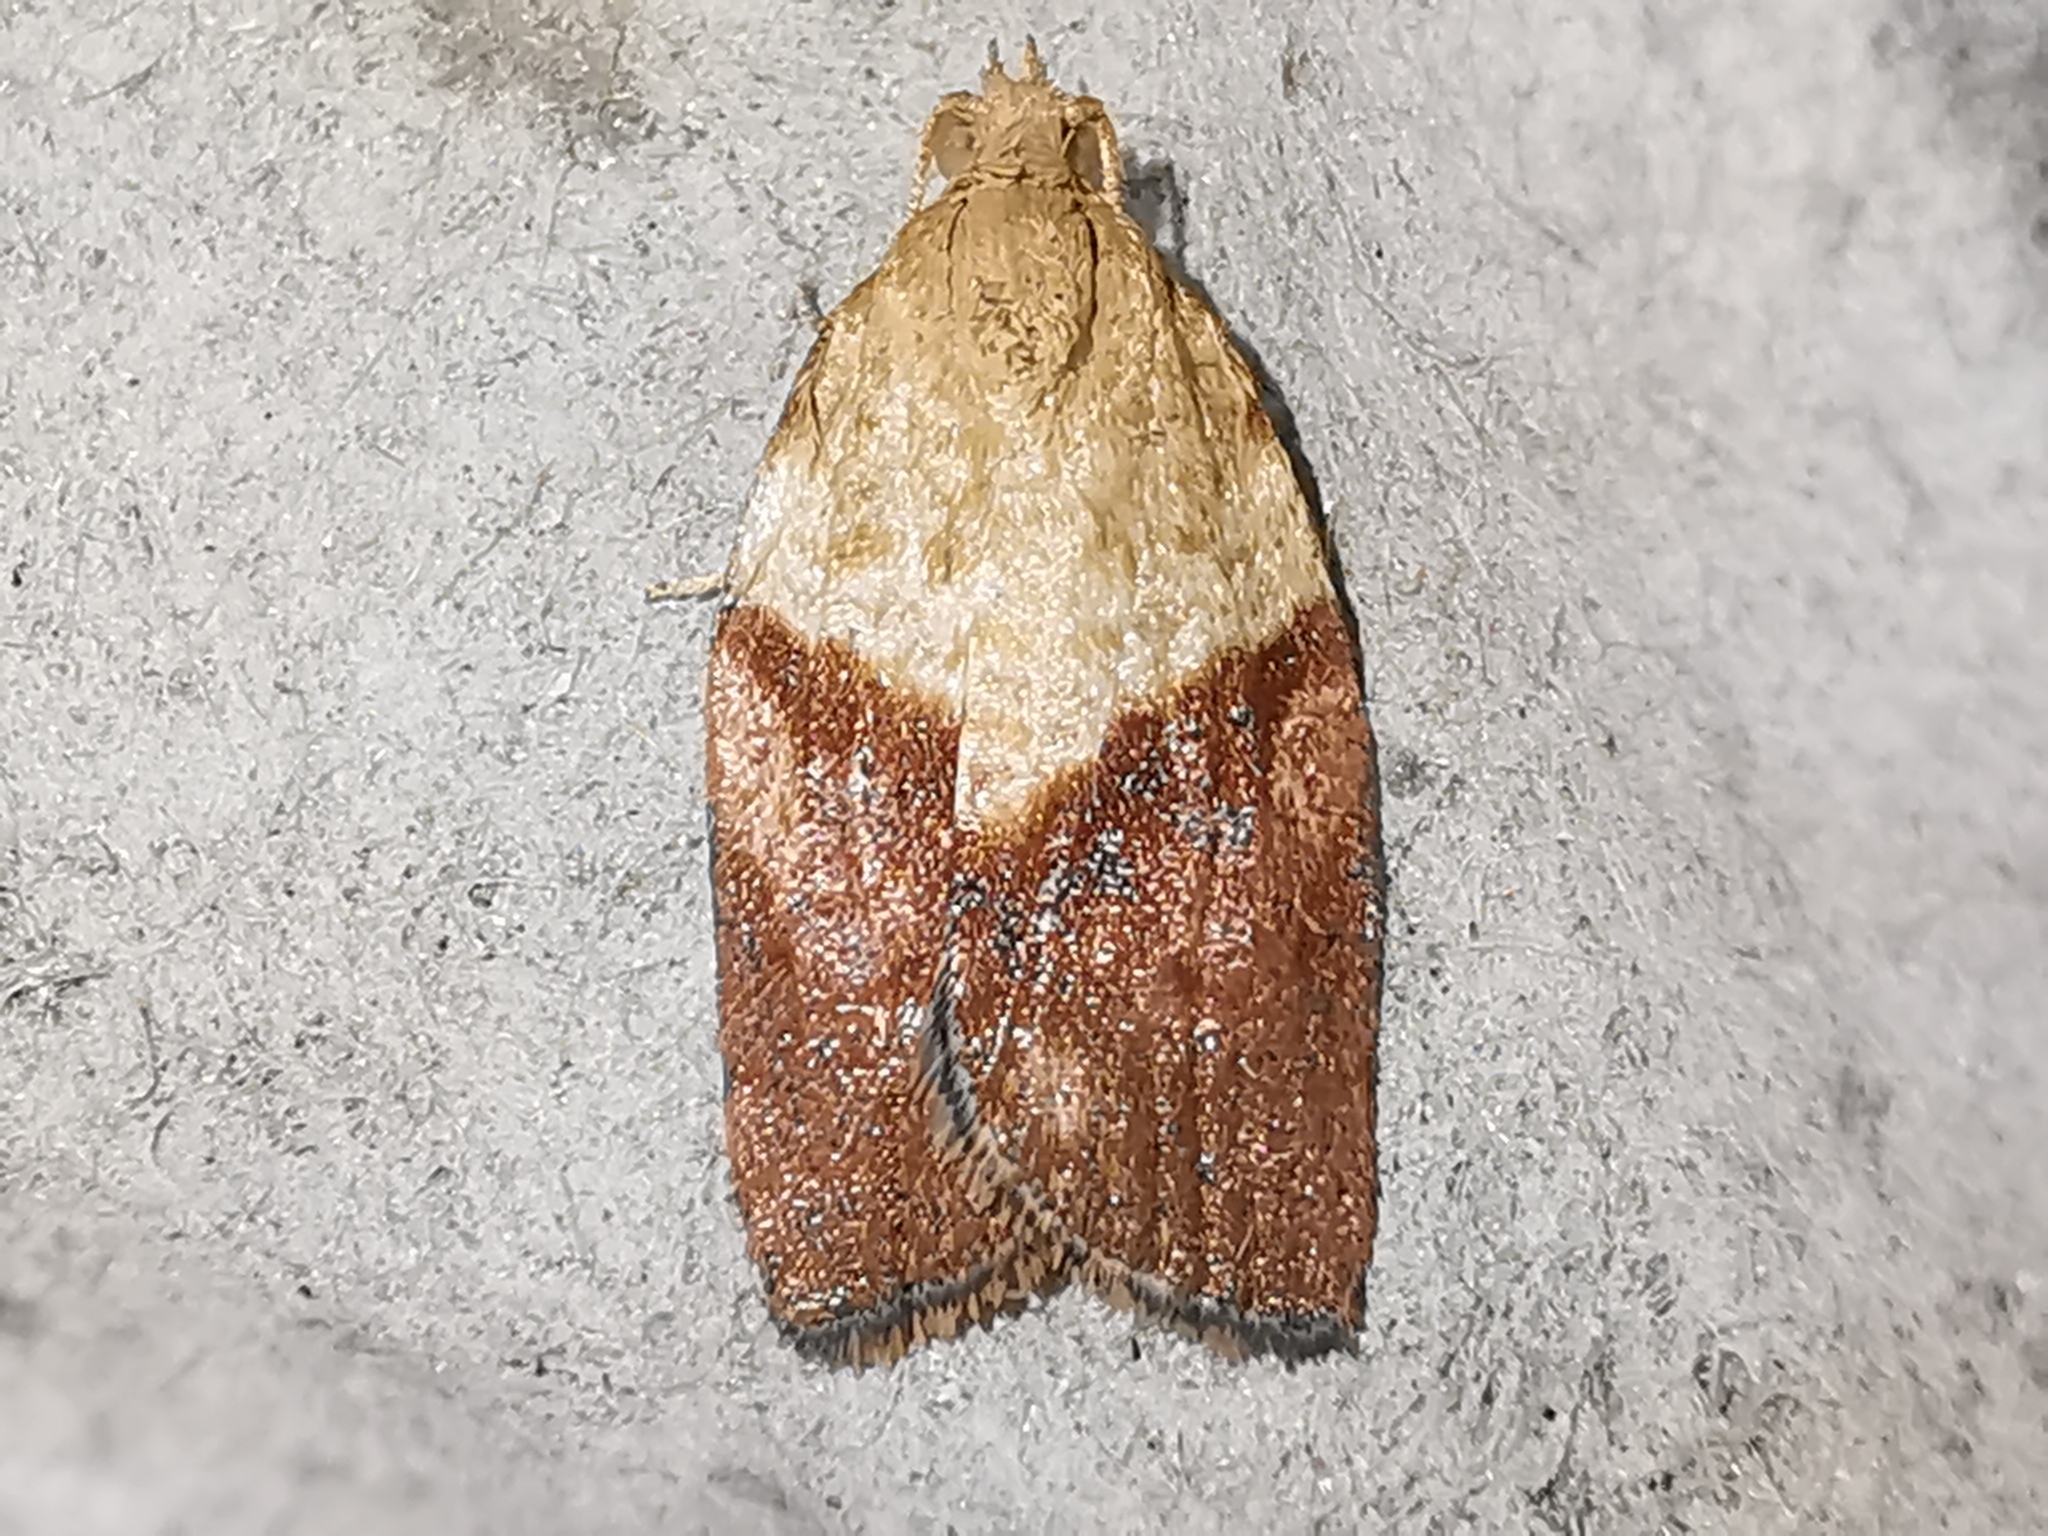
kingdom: Animalia
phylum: Arthropoda
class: Insecta
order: Lepidoptera
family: Tortricidae
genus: Epiphyas
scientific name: Epiphyas postvittana
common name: Light brown apple moth
